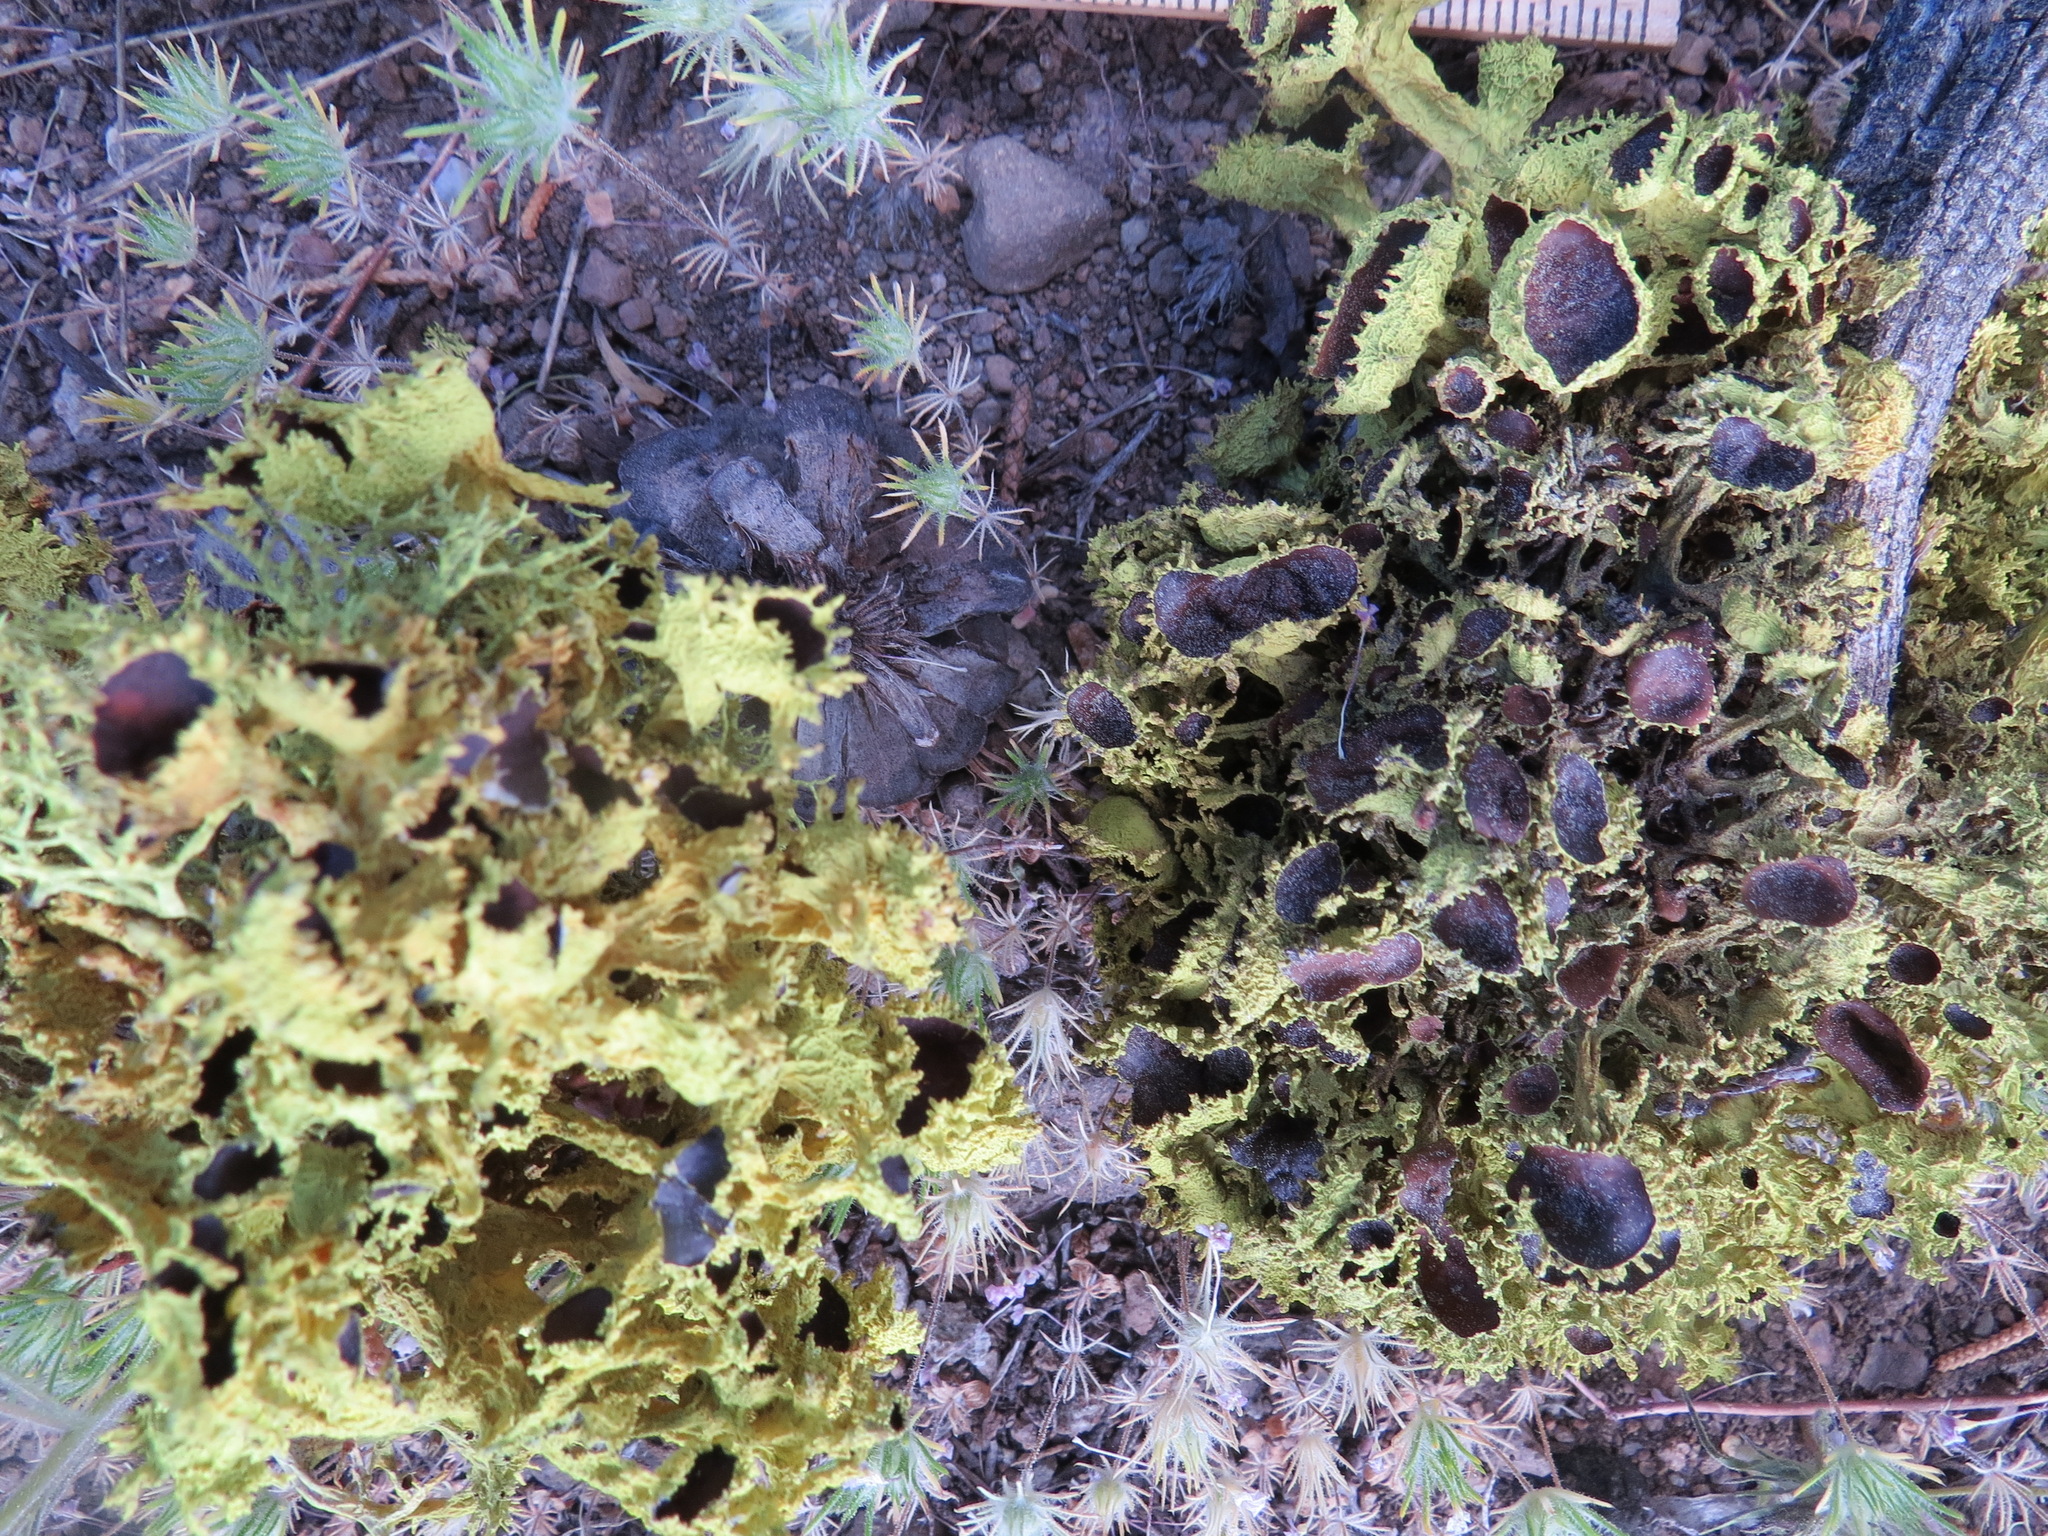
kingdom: Fungi
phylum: Ascomycota
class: Lecanoromycetes
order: Lecanorales
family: Parmeliaceae
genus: Letharia
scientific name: Letharia columbiana
